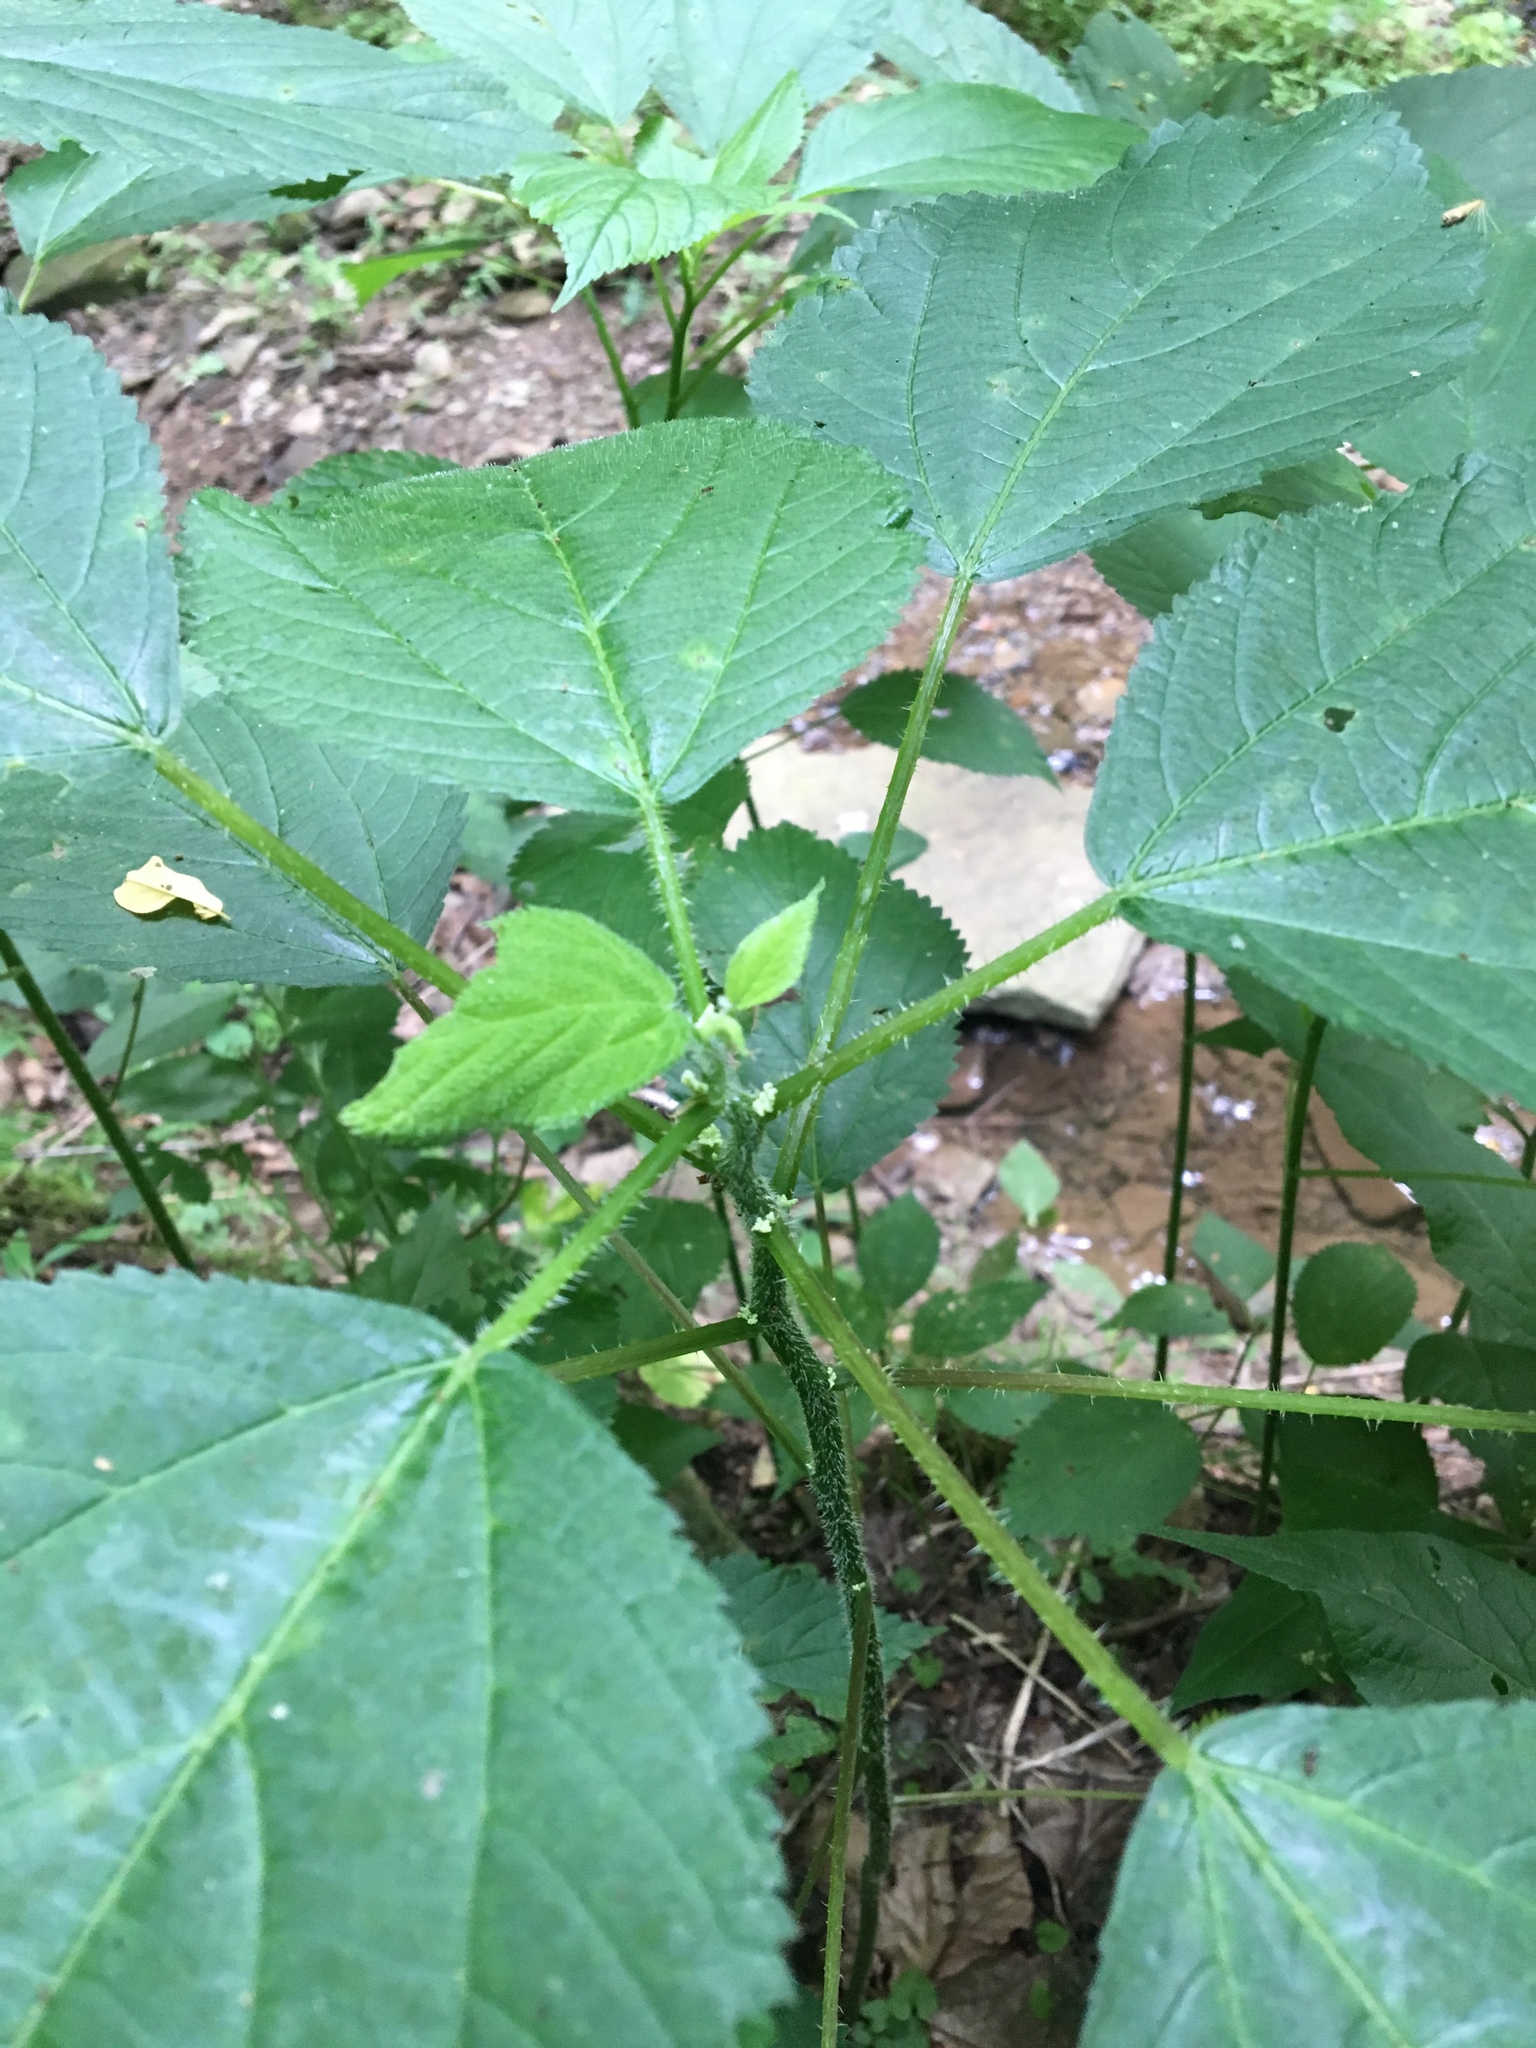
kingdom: Plantae
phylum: Tracheophyta
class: Magnoliopsida
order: Rosales
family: Urticaceae
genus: Urtica
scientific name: Urtica dioica
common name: Common nettle
